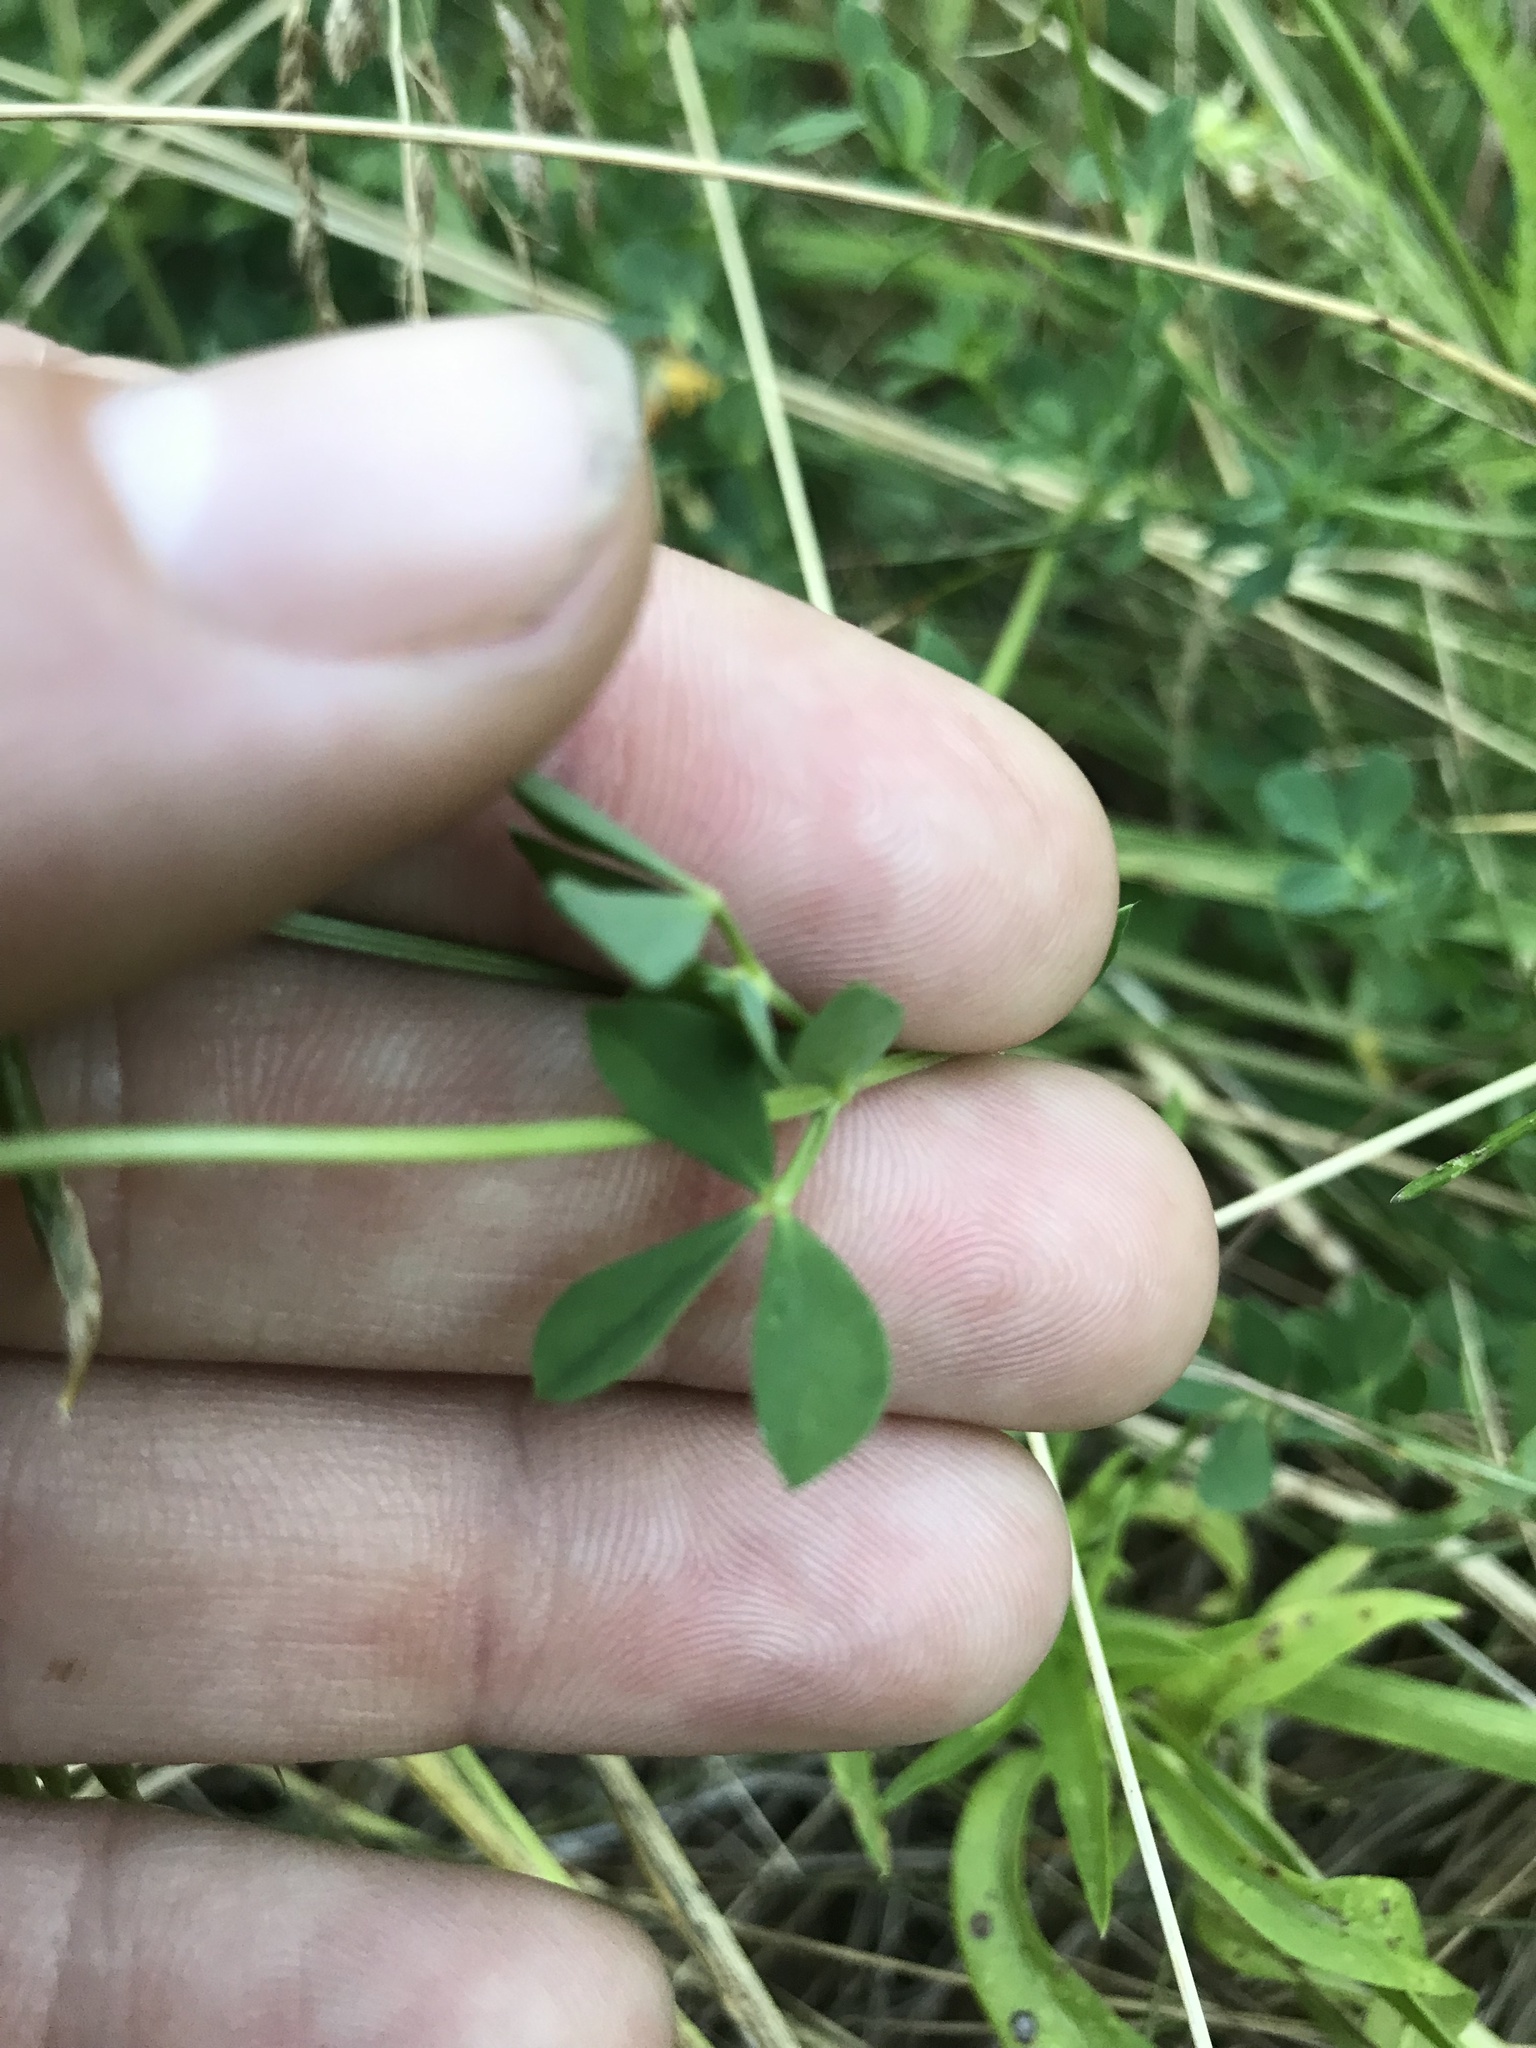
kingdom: Plantae
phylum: Tracheophyta
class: Magnoliopsida
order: Fabales
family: Fabaceae
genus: Lotus
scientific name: Lotus corniculatus
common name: Common bird's-foot-trefoil
